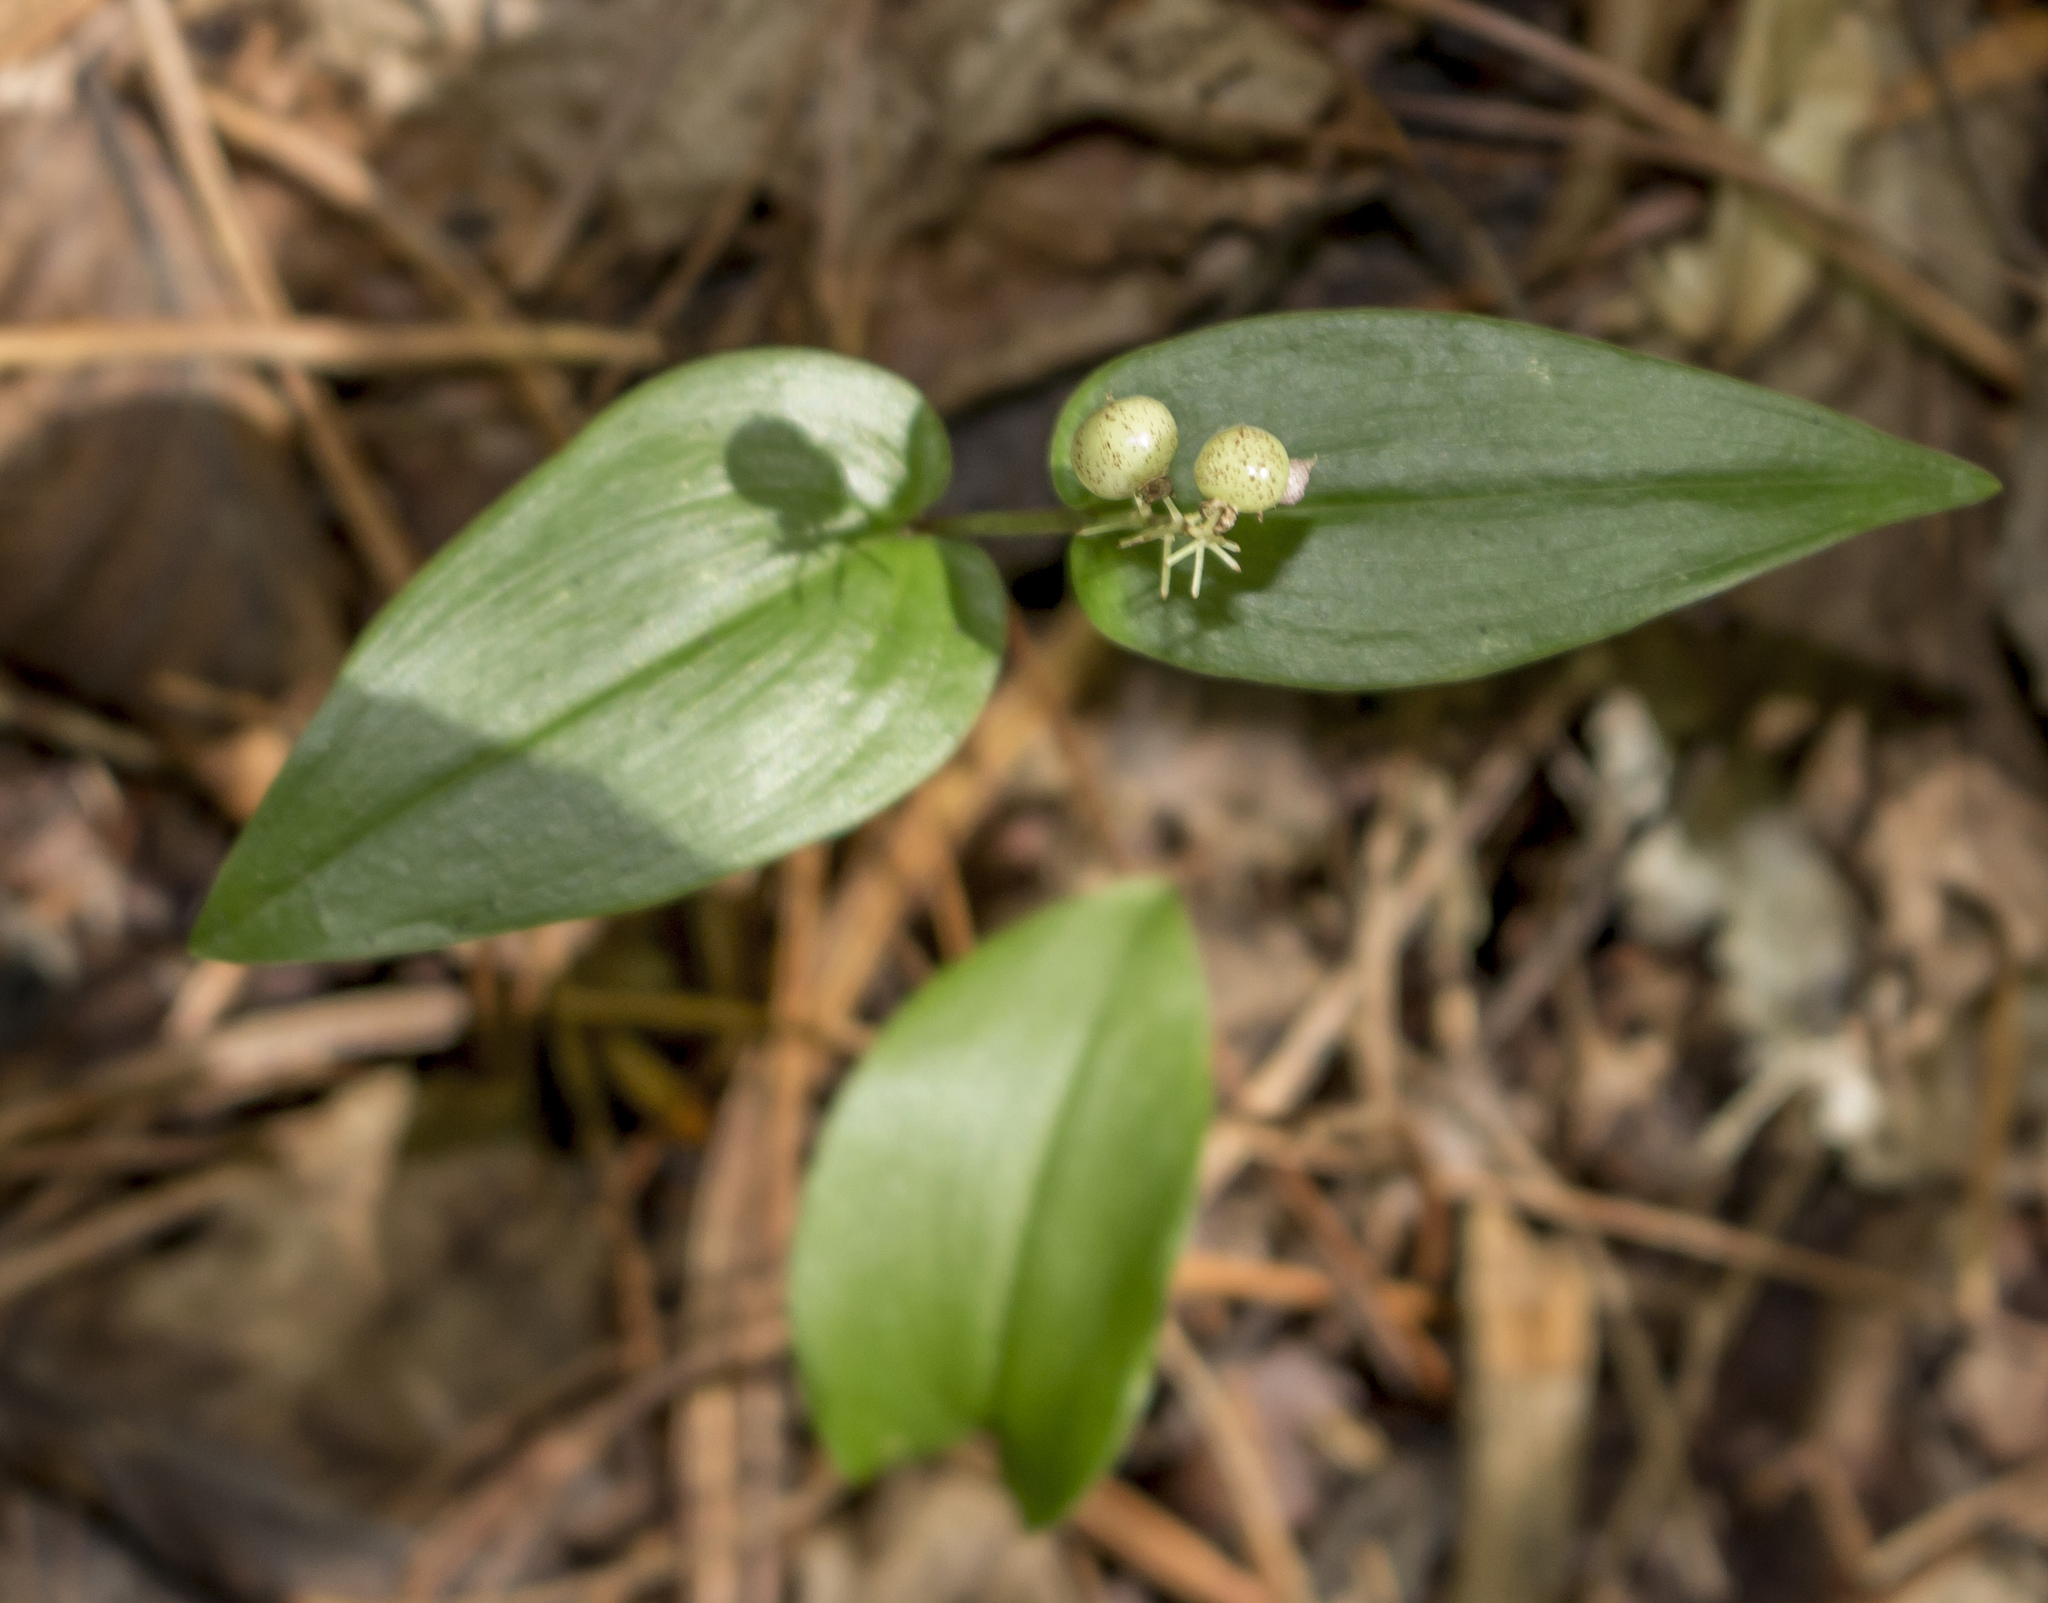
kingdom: Plantae
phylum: Tracheophyta
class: Liliopsida
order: Asparagales
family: Asparagaceae
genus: Maianthemum
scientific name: Maianthemum canadense
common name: False lily-of-the-valley
